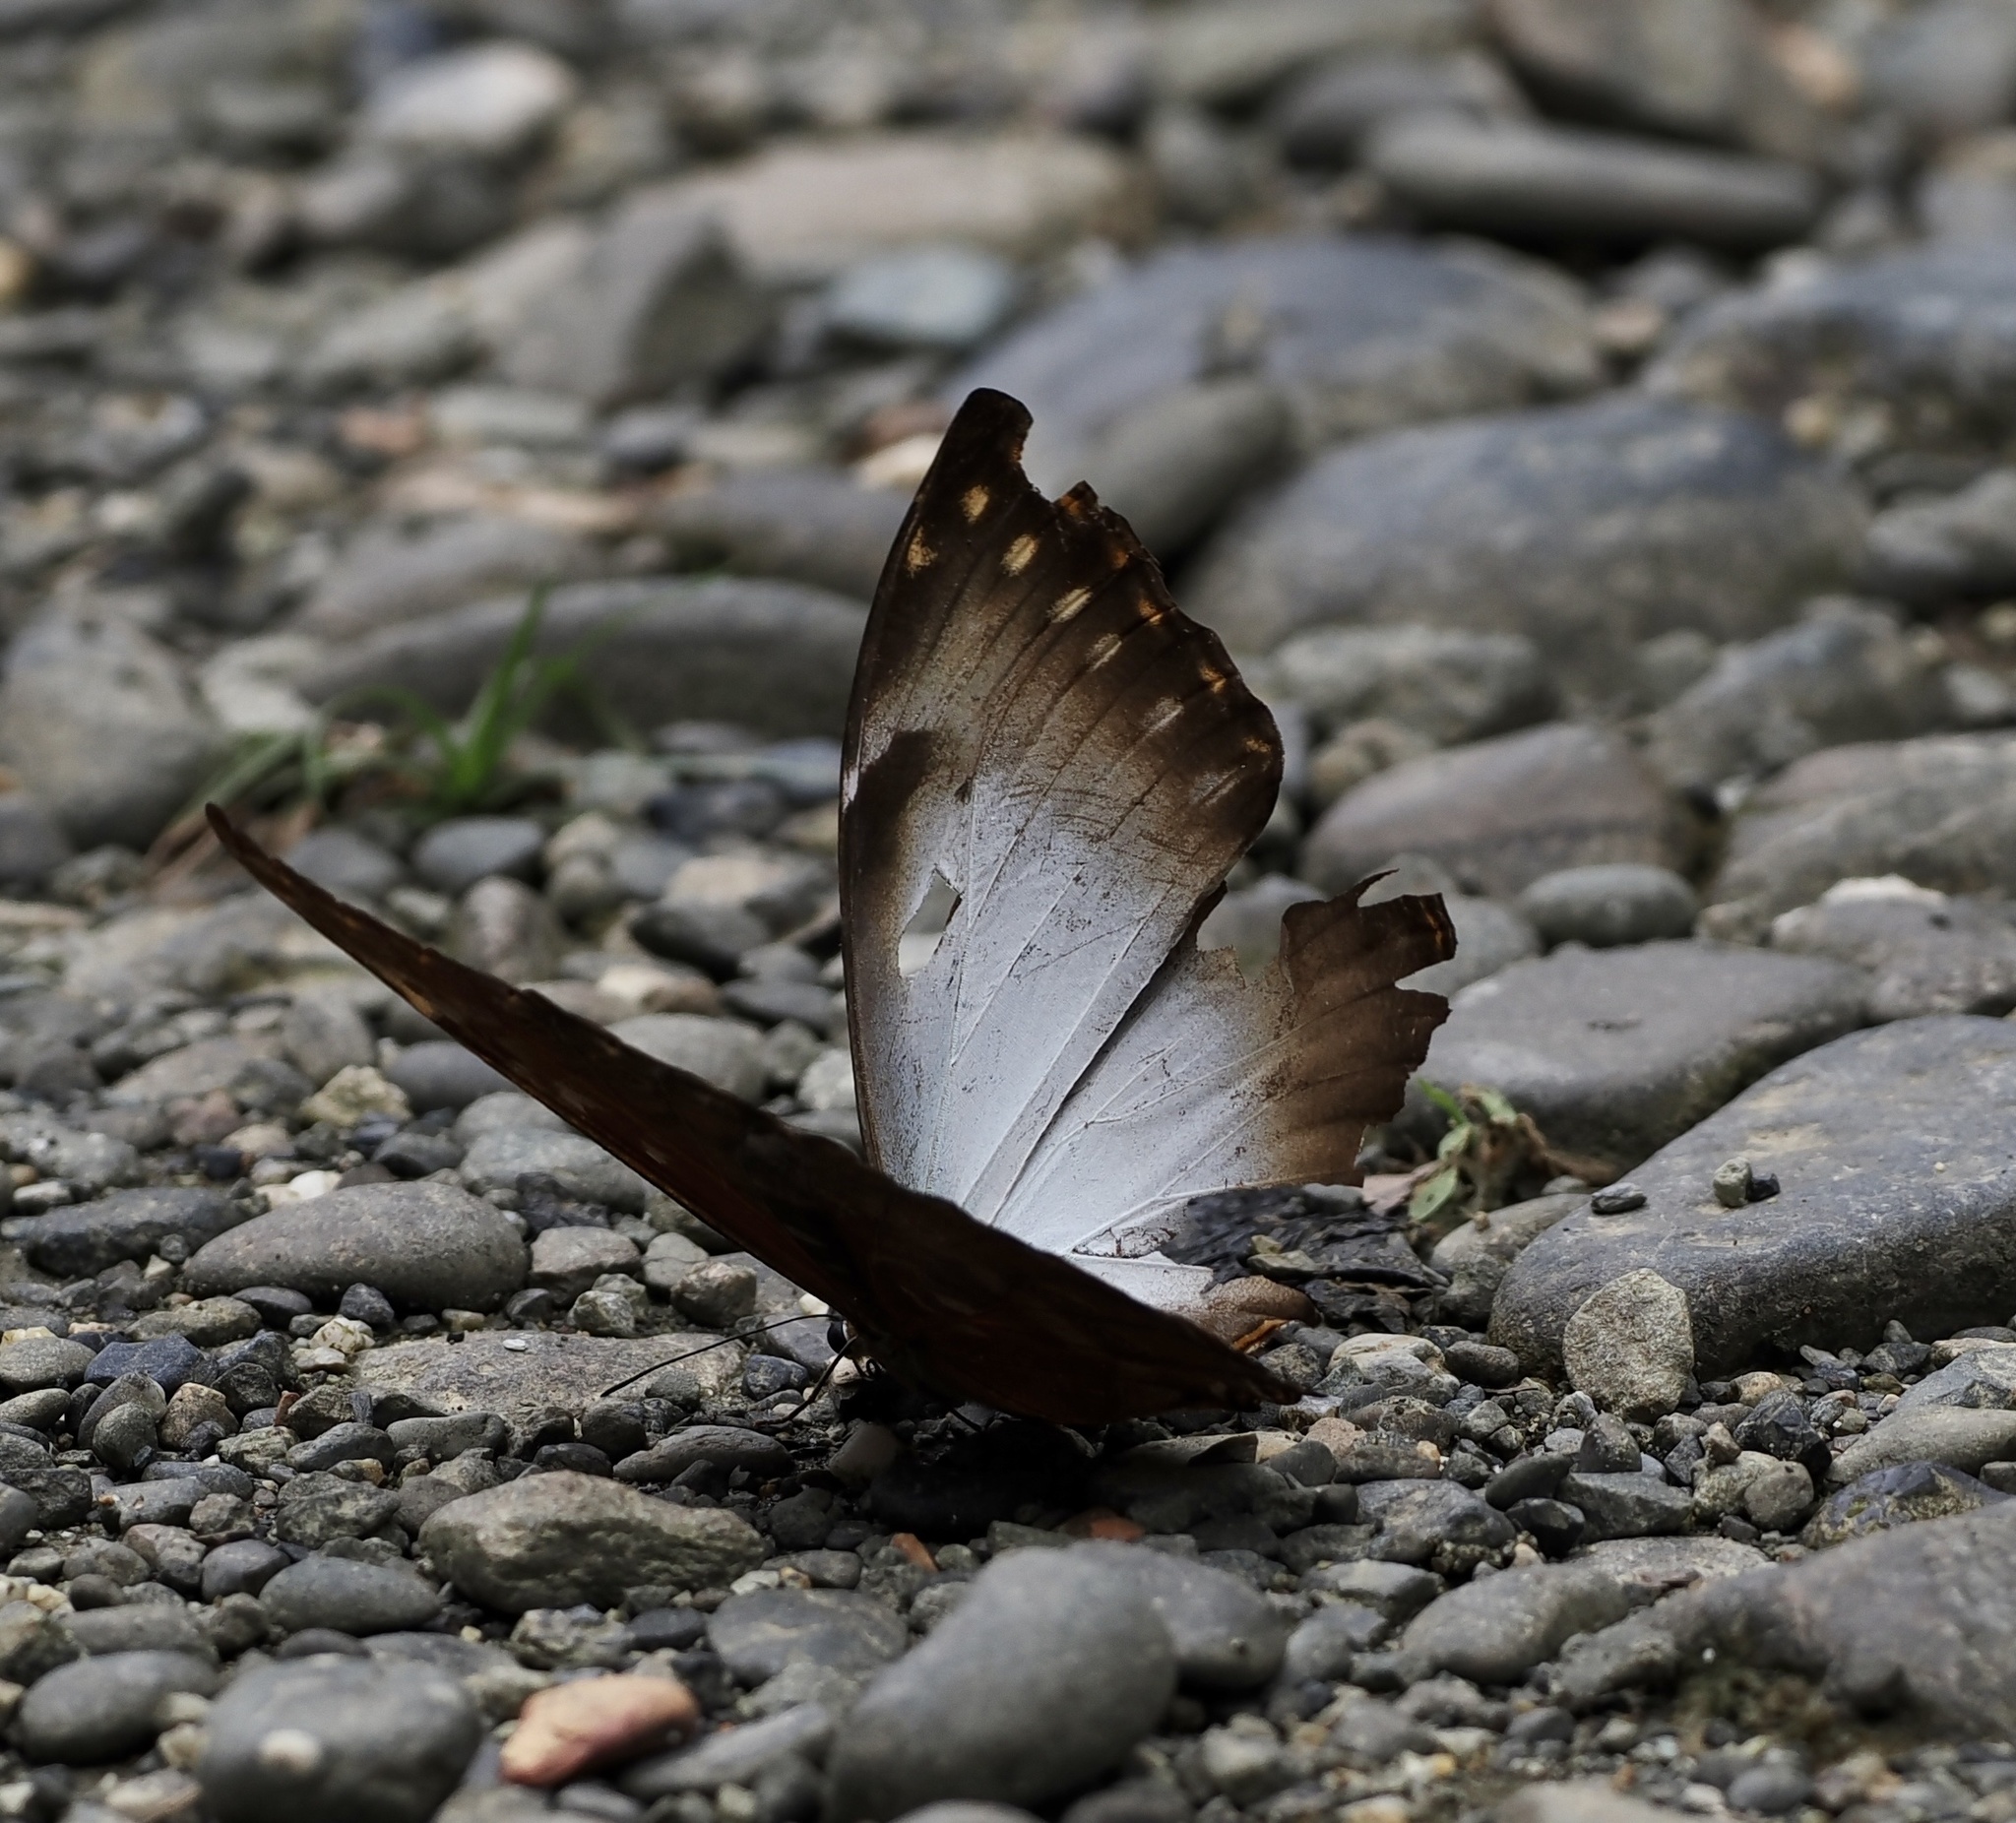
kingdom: Animalia
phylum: Arthropoda
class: Insecta
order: Lepidoptera
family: Nymphalidae
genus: Morpho
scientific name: Morpho theseus
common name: Stub-tailed morpho
